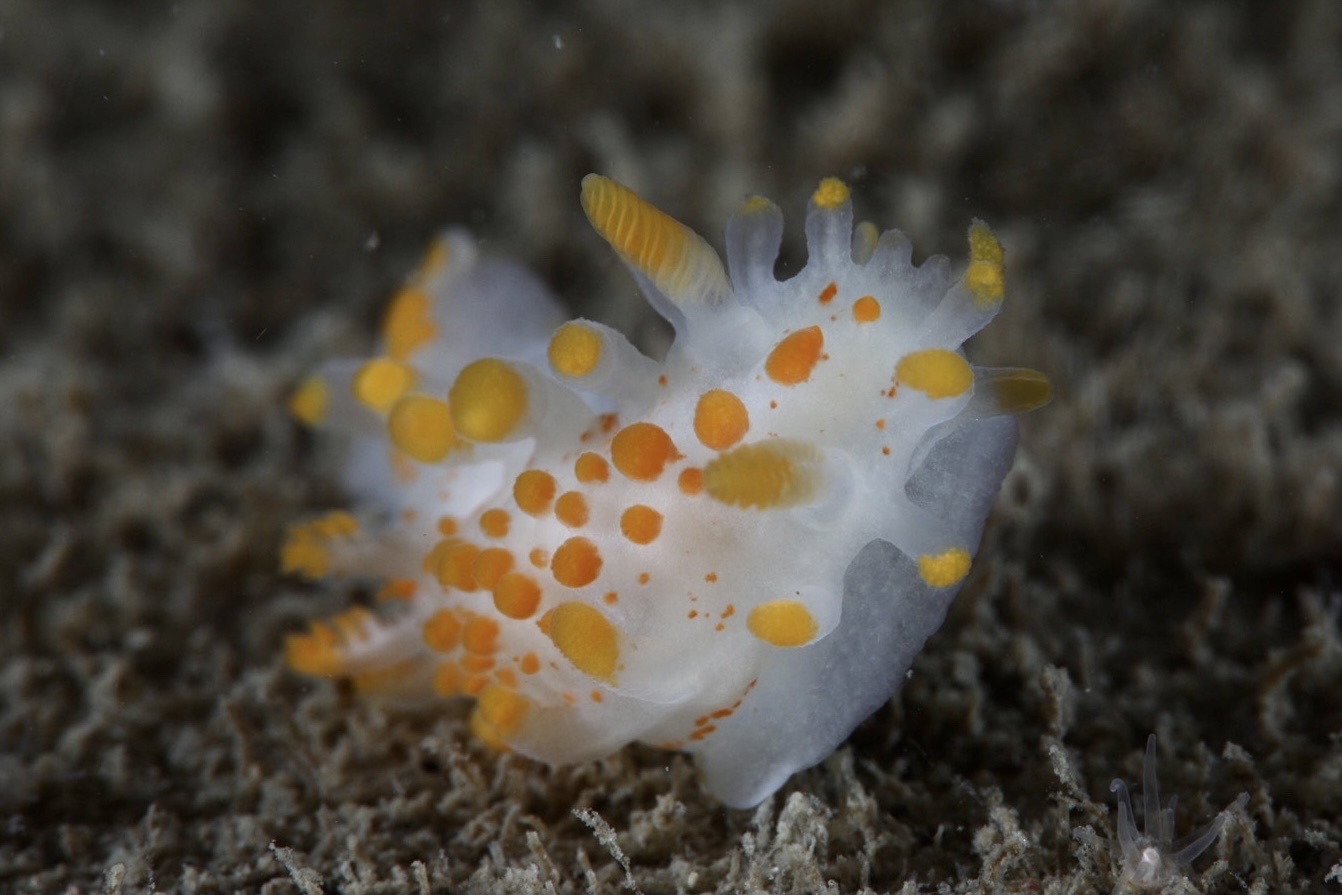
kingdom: Animalia
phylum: Mollusca
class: Gastropoda
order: Nudibranchia
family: Polyceridae
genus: Limacia
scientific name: Limacia clavigera
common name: Orange-clubbed sea slug
